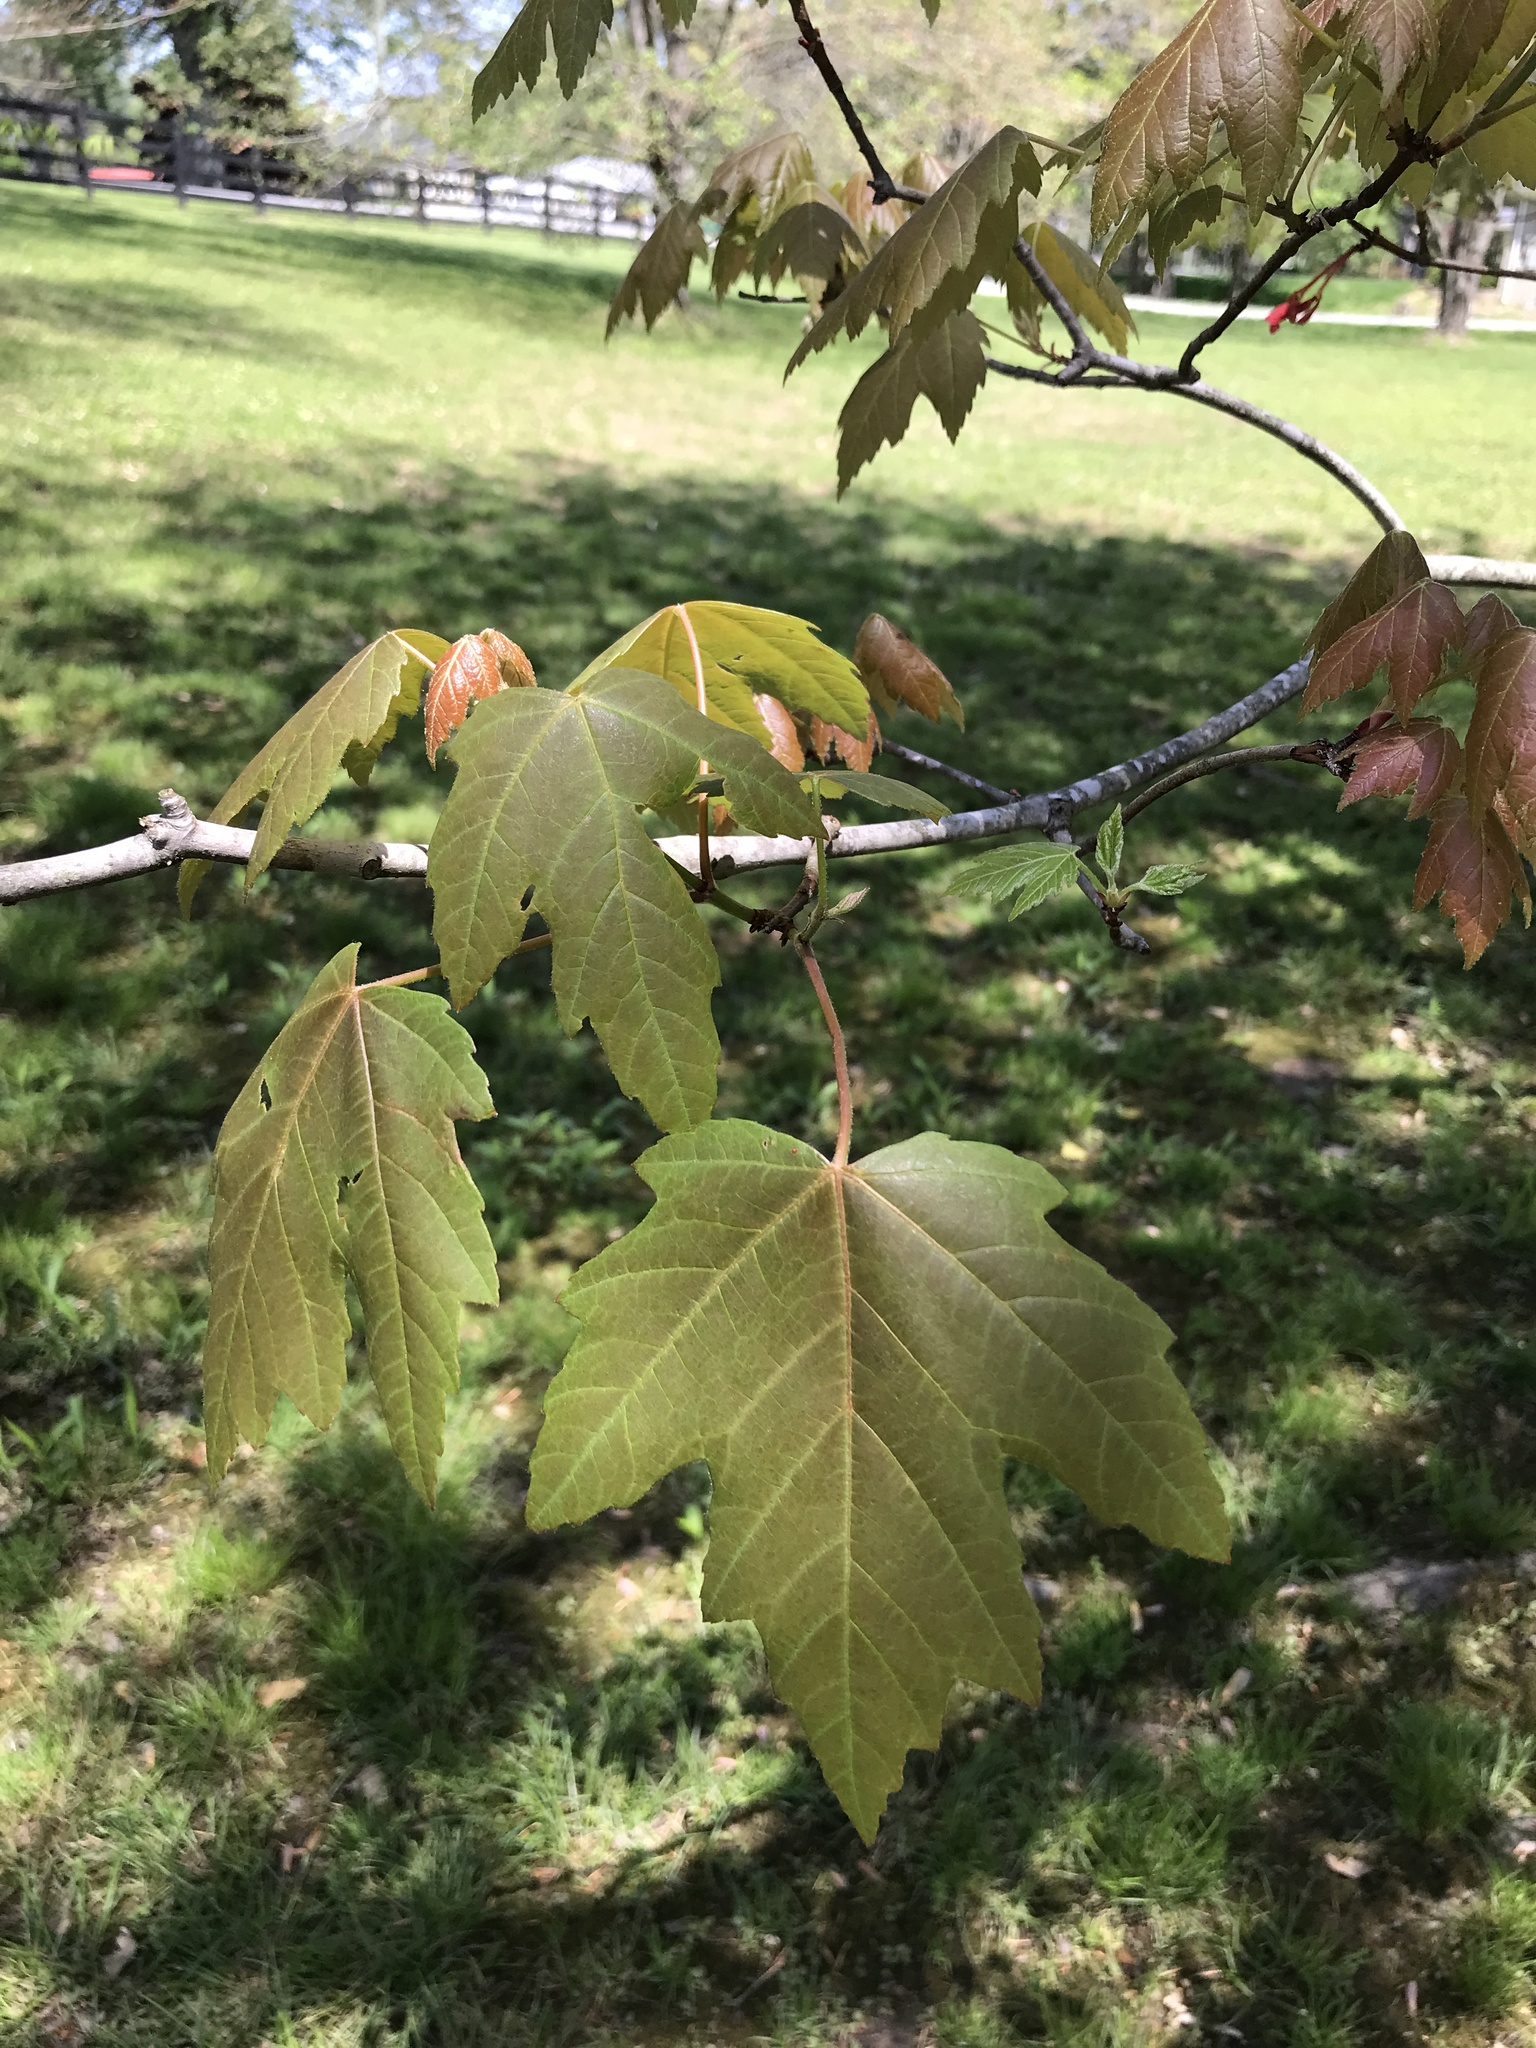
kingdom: Plantae
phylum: Tracheophyta
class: Magnoliopsida
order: Sapindales
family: Sapindaceae
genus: Acer
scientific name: Acer saccharinum
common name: Silver maple
